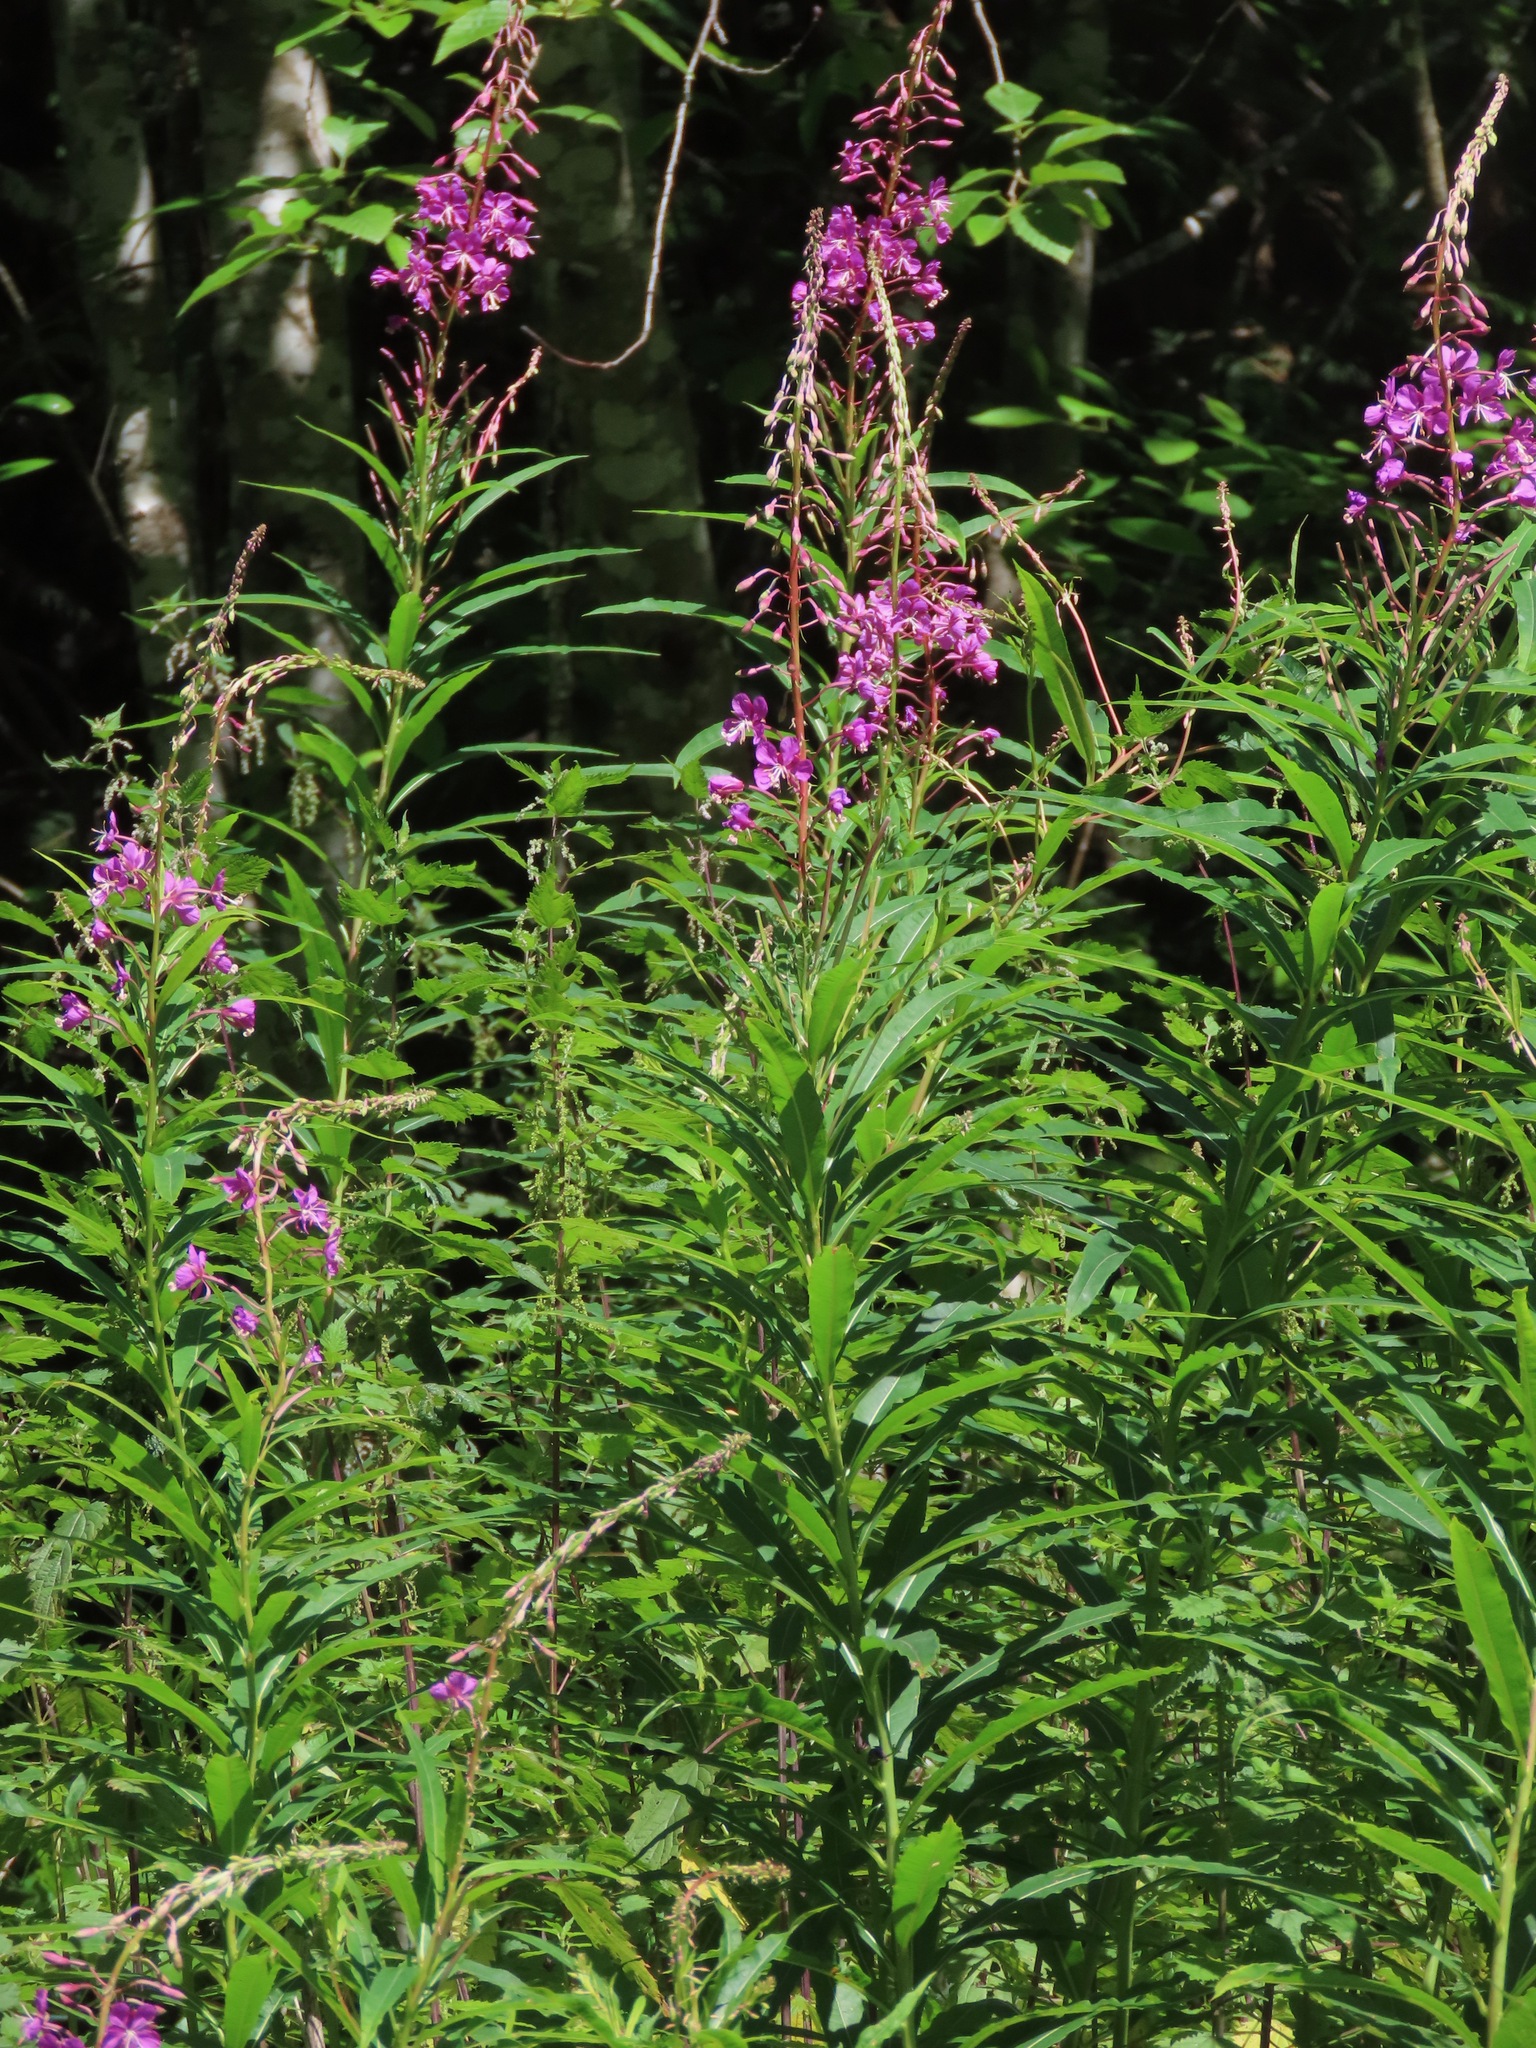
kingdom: Plantae
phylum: Tracheophyta
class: Magnoliopsida
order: Myrtales
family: Onagraceae
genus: Chamaenerion
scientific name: Chamaenerion angustifolium
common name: Fireweed
